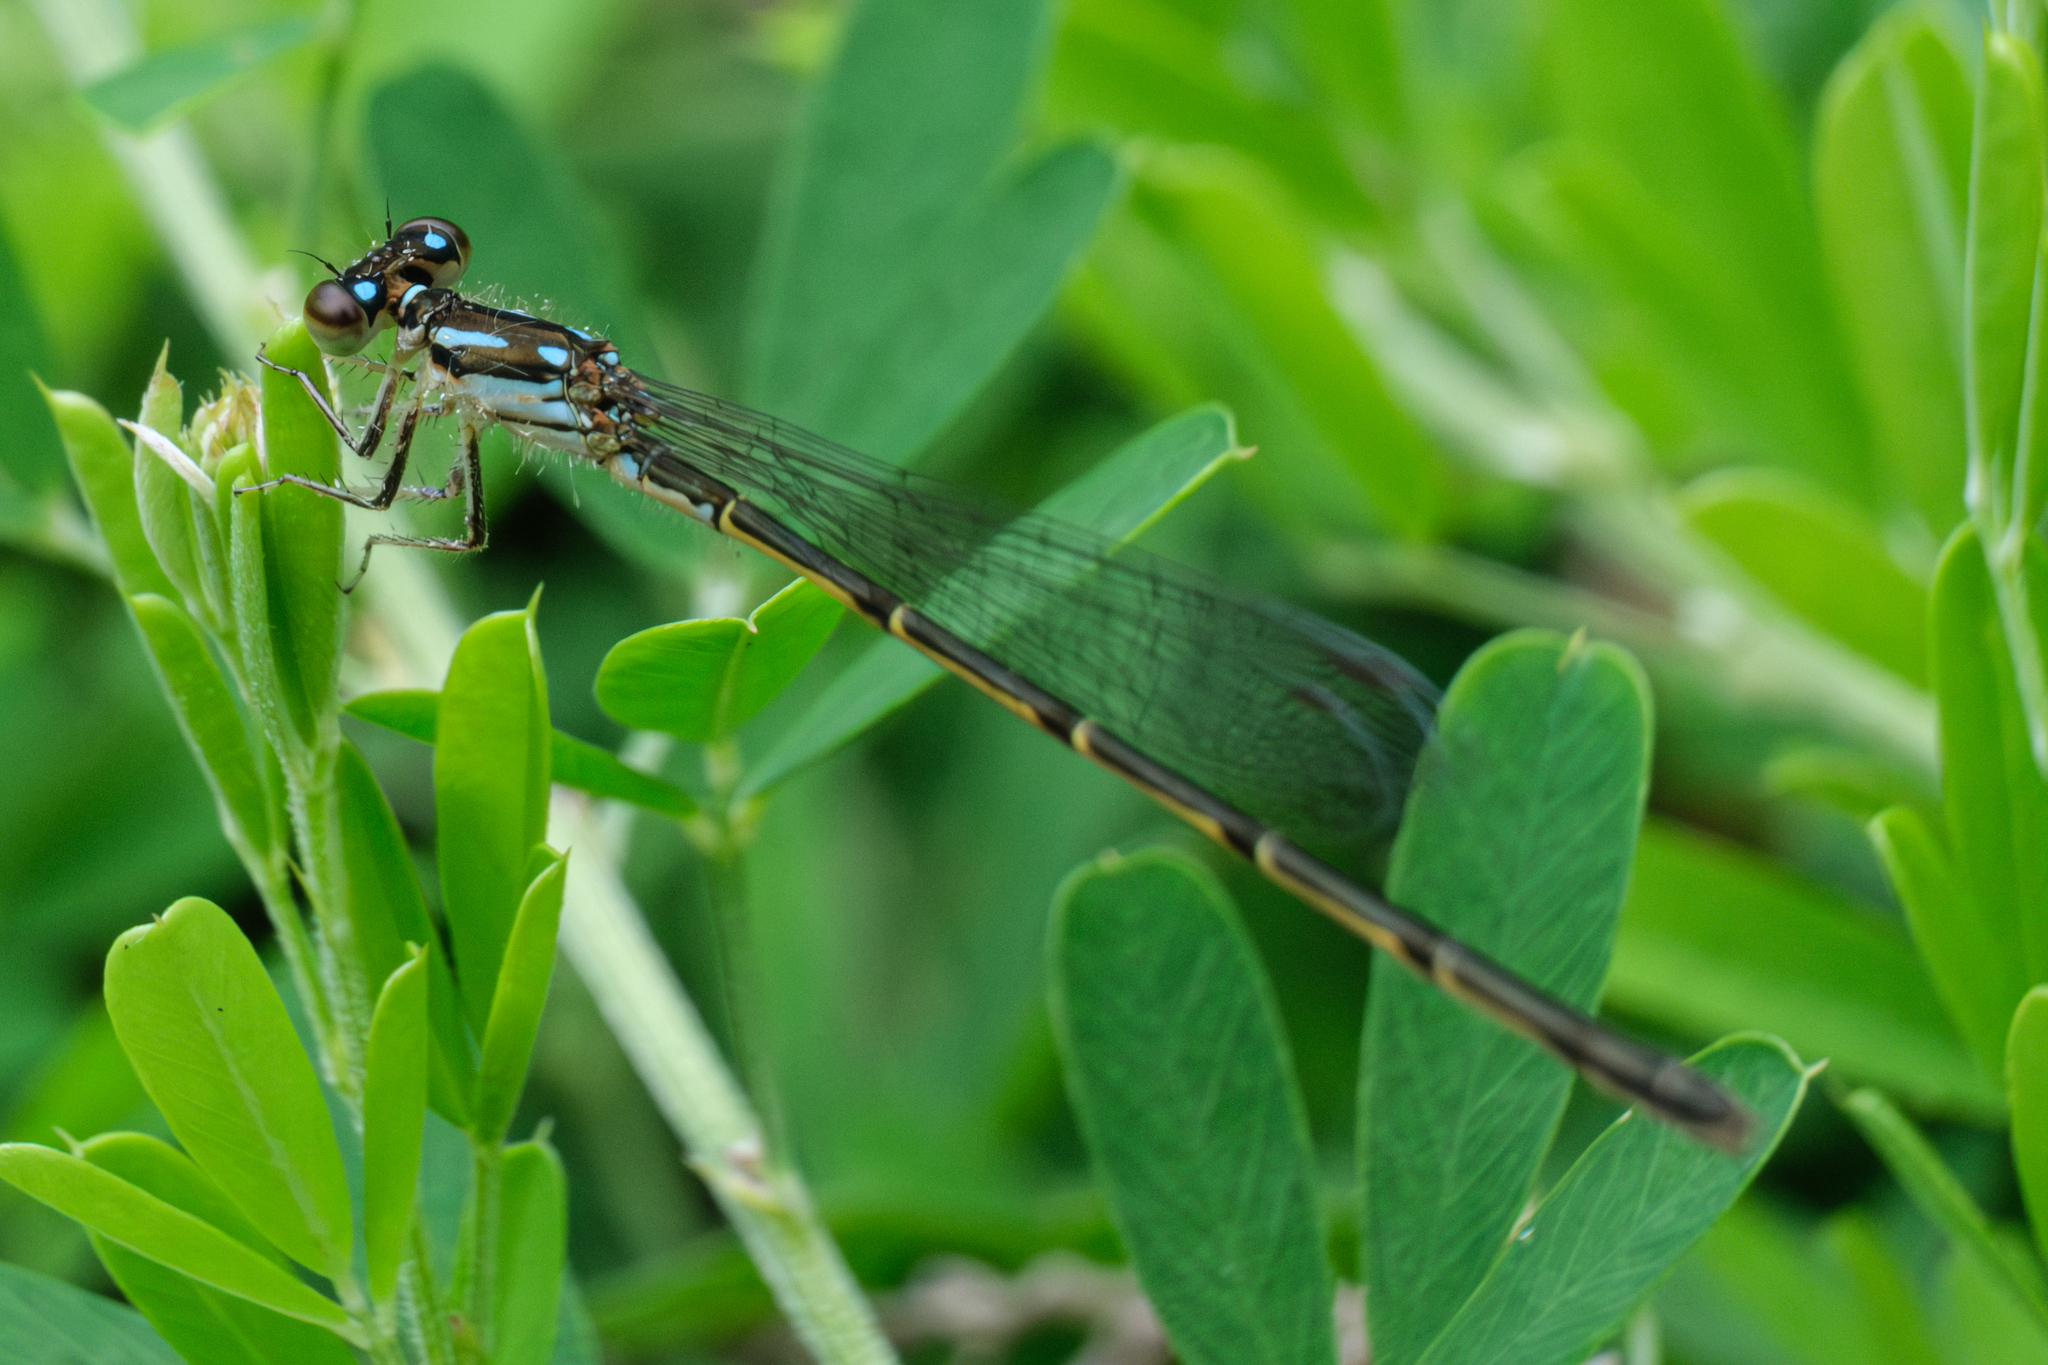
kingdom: Animalia
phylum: Arthropoda
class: Insecta
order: Odonata
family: Coenagrionidae
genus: Ischnura
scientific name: Ischnura posita
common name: Fragile forktail
